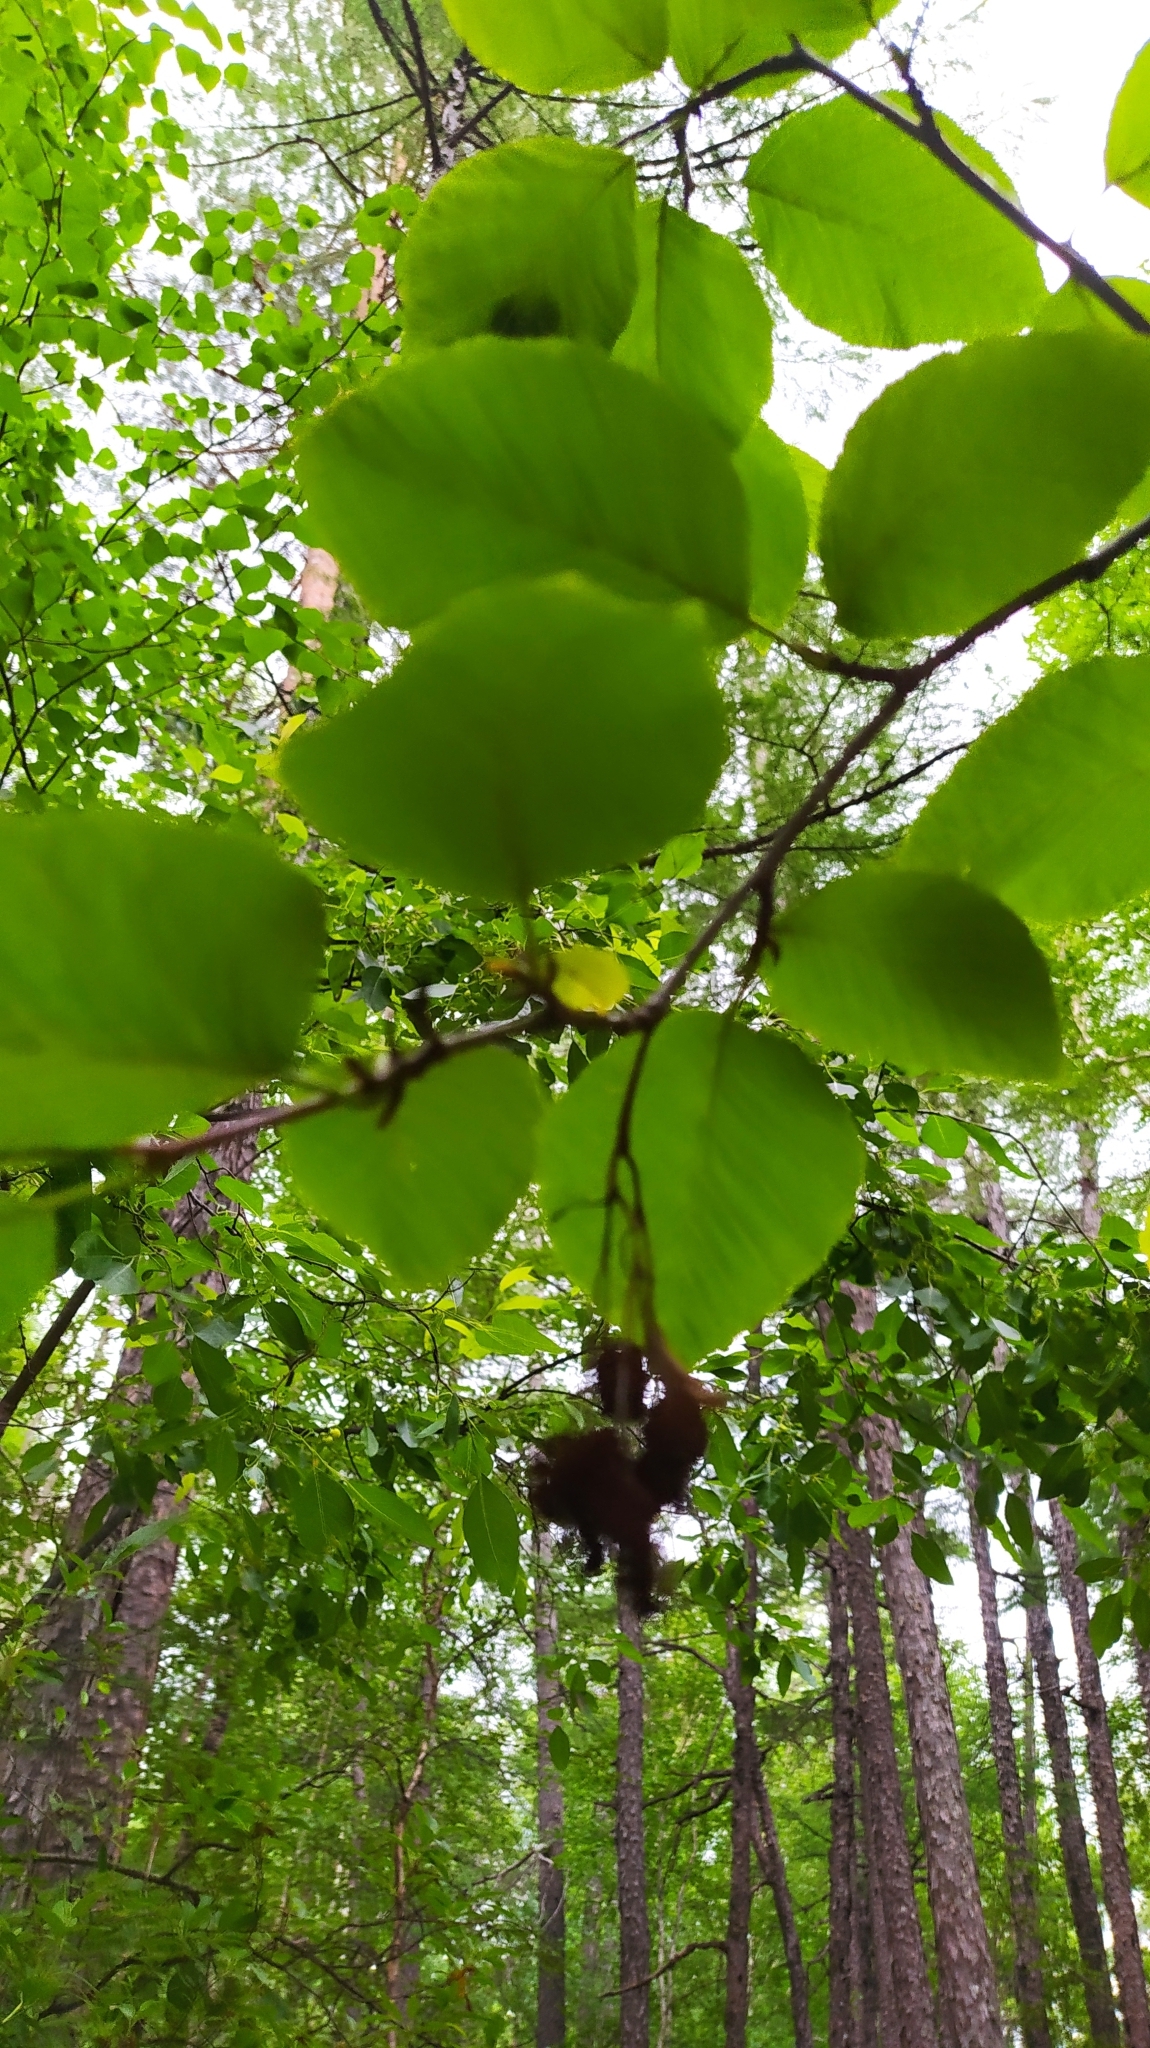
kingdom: Plantae
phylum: Tracheophyta
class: Magnoliopsida
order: Fagales
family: Betulaceae
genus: Alnus
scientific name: Alnus alnobetula
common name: Green alder
